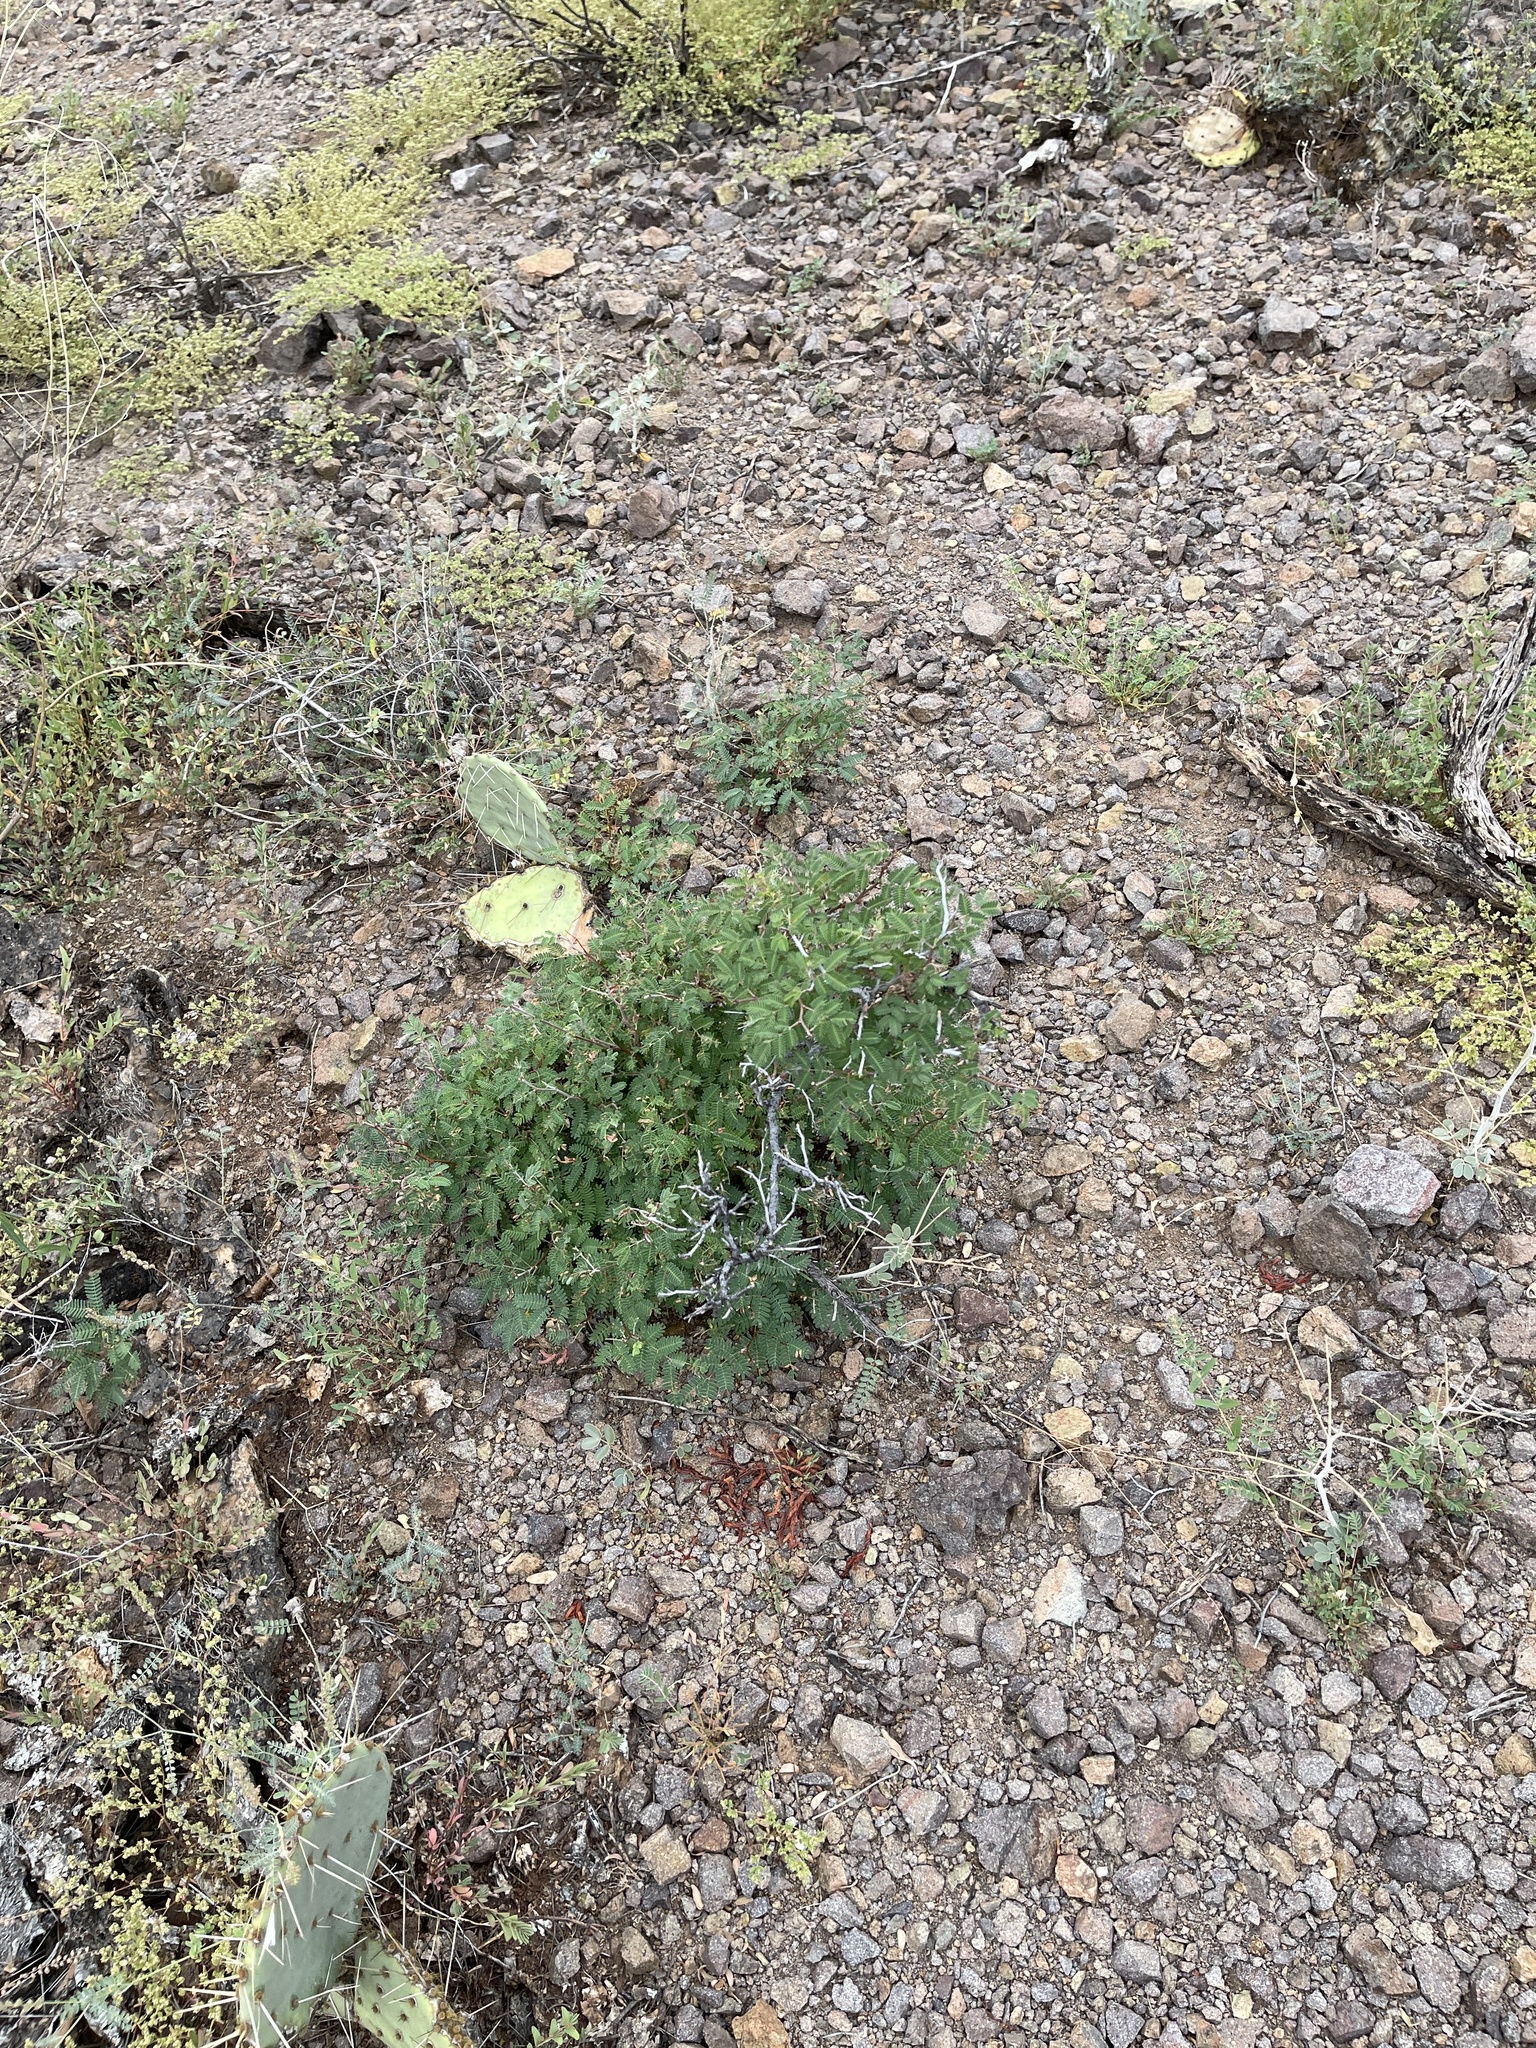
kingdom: Plantae
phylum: Tracheophyta
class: Magnoliopsida
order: Fabales
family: Fabaceae
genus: Calliandra
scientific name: Calliandra eriophylla
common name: Fairy-duster
